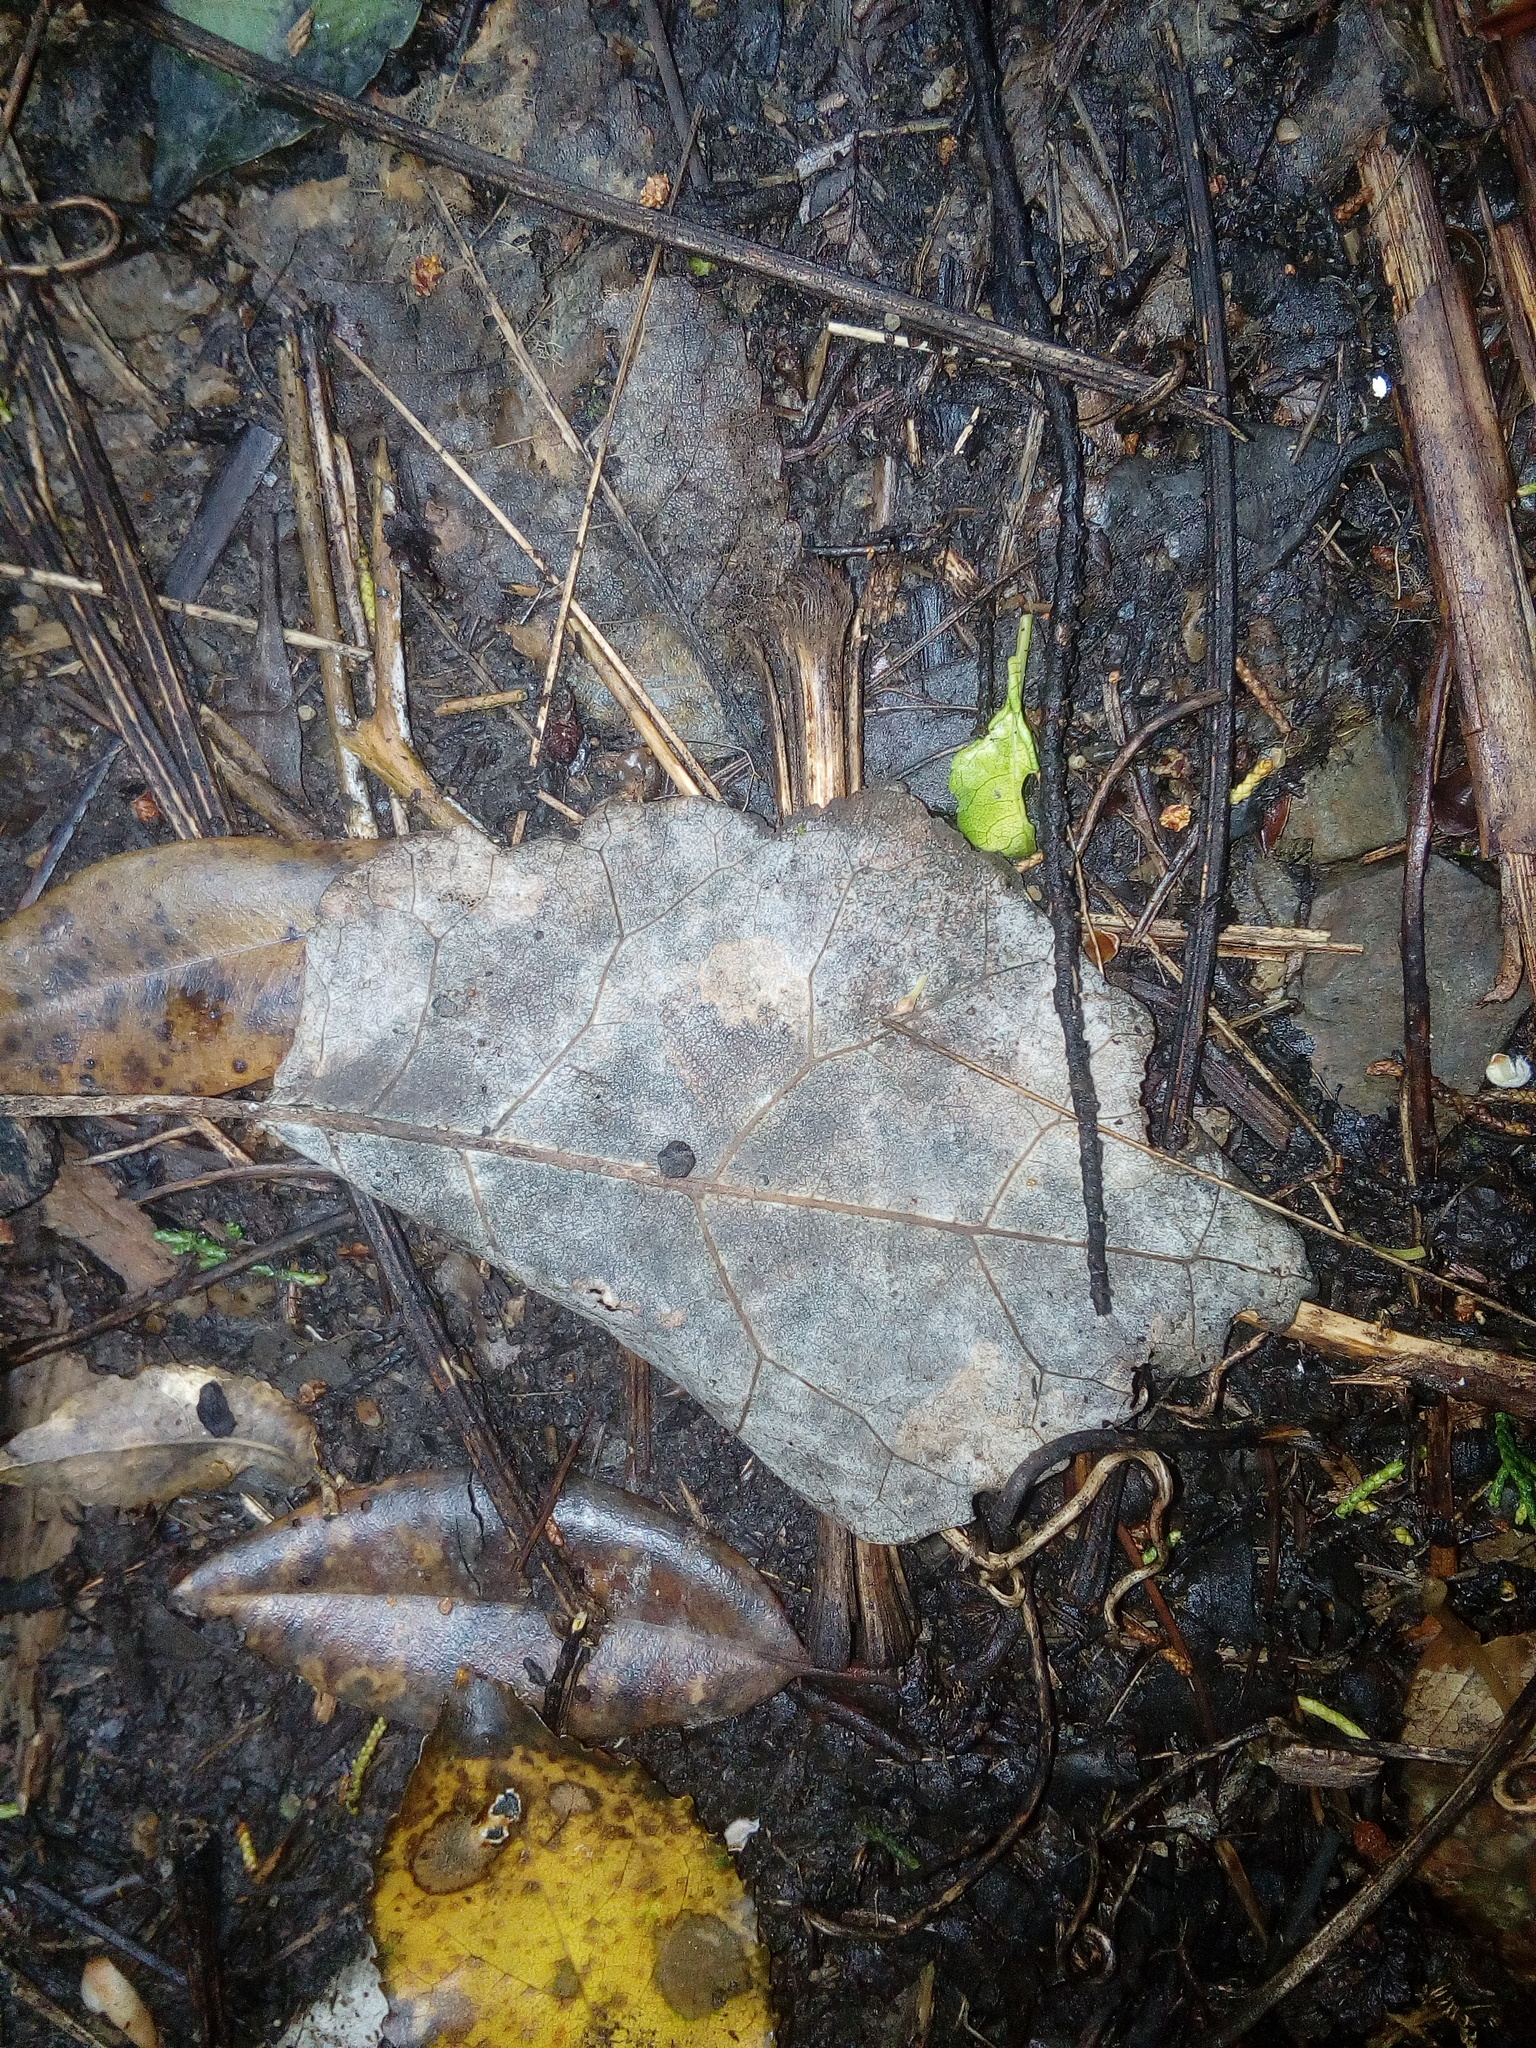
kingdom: Plantae
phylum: Tracheophyta
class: Magnoliopsida
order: Asterales
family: Asteraceae
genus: Brachyglottis
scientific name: Brachyglottis repanda
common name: Hedge ragwort
